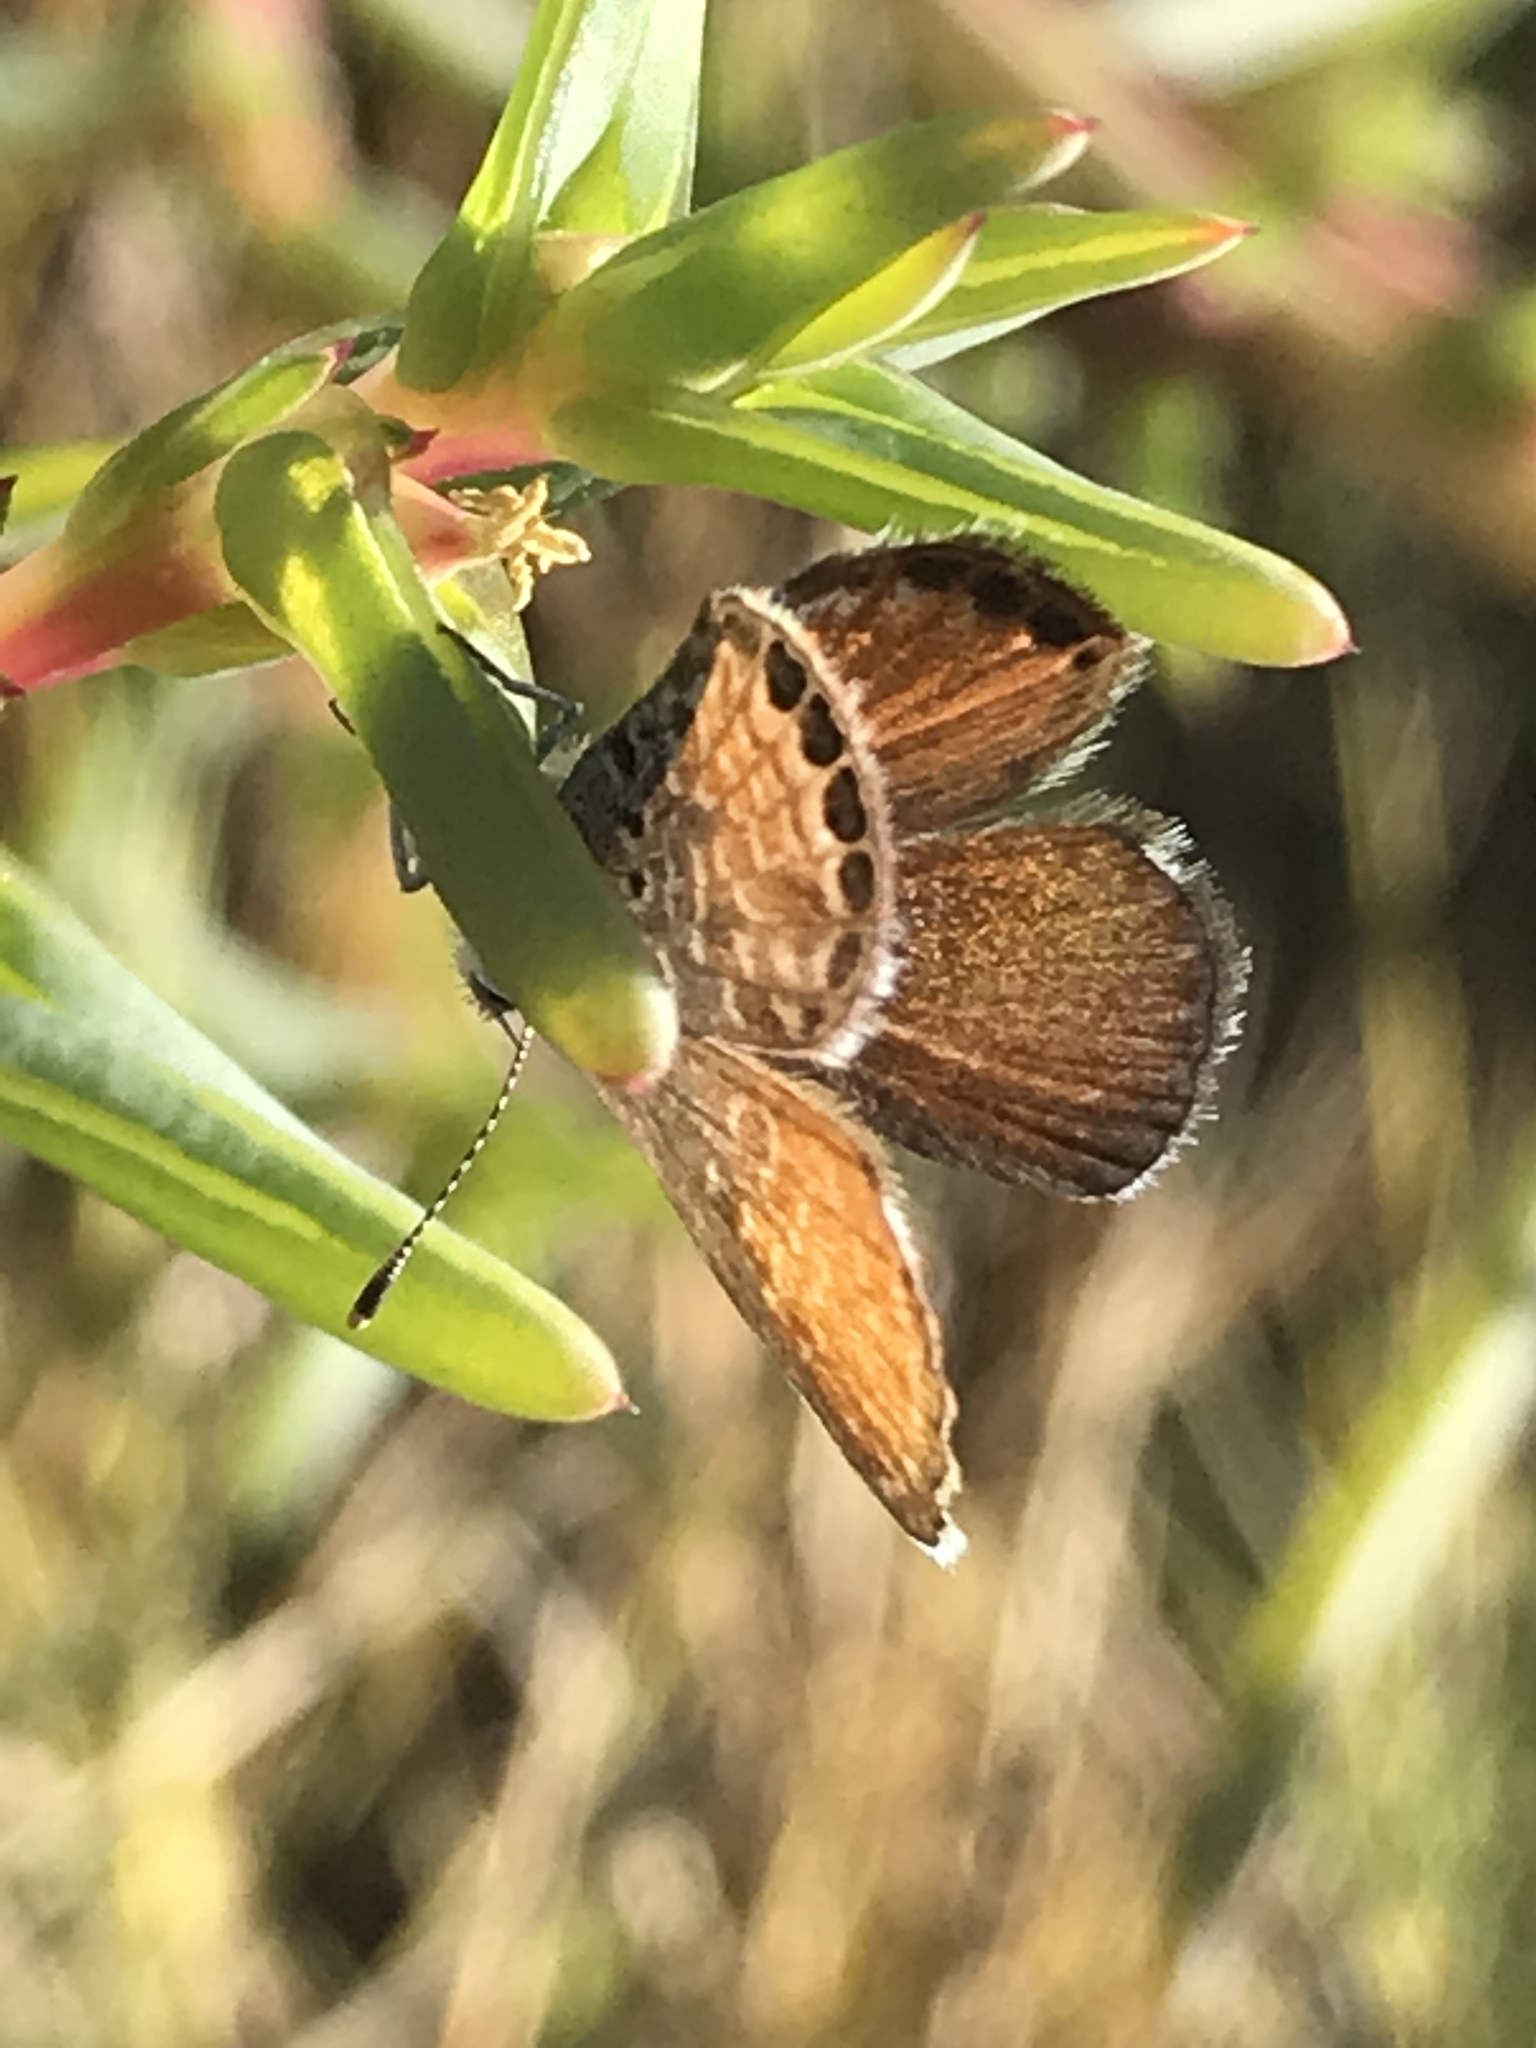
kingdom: Animalia
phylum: Arthropoda
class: Insecta
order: Lepidoptera
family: Lycaenidae
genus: Brephidium
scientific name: Brephidium exilis
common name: Pygmy blue
